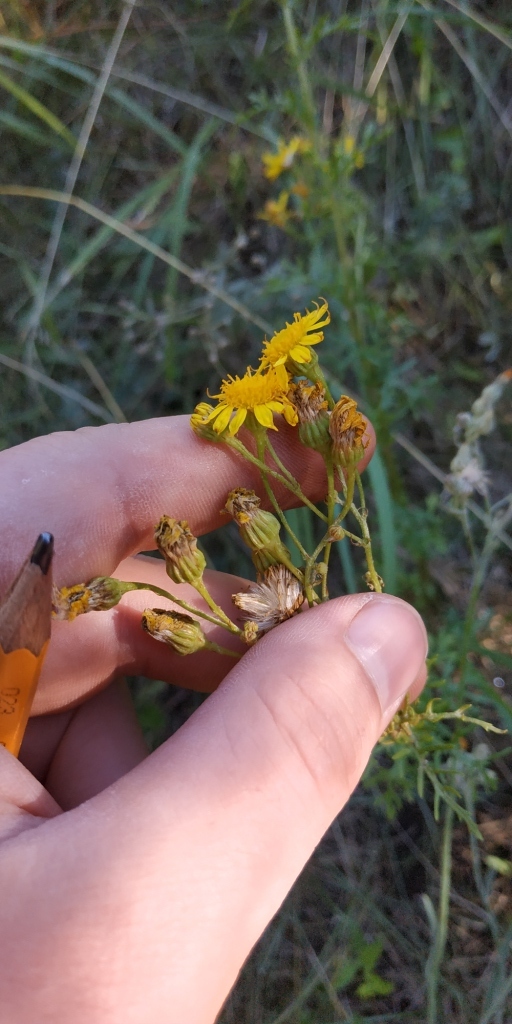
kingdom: Plantae
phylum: Tracheophyta
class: Magnoliopsida
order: Asterales
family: Asteraceae
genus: Jacobaea
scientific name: Jacobaea erucifolia
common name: Hoary ragwort
